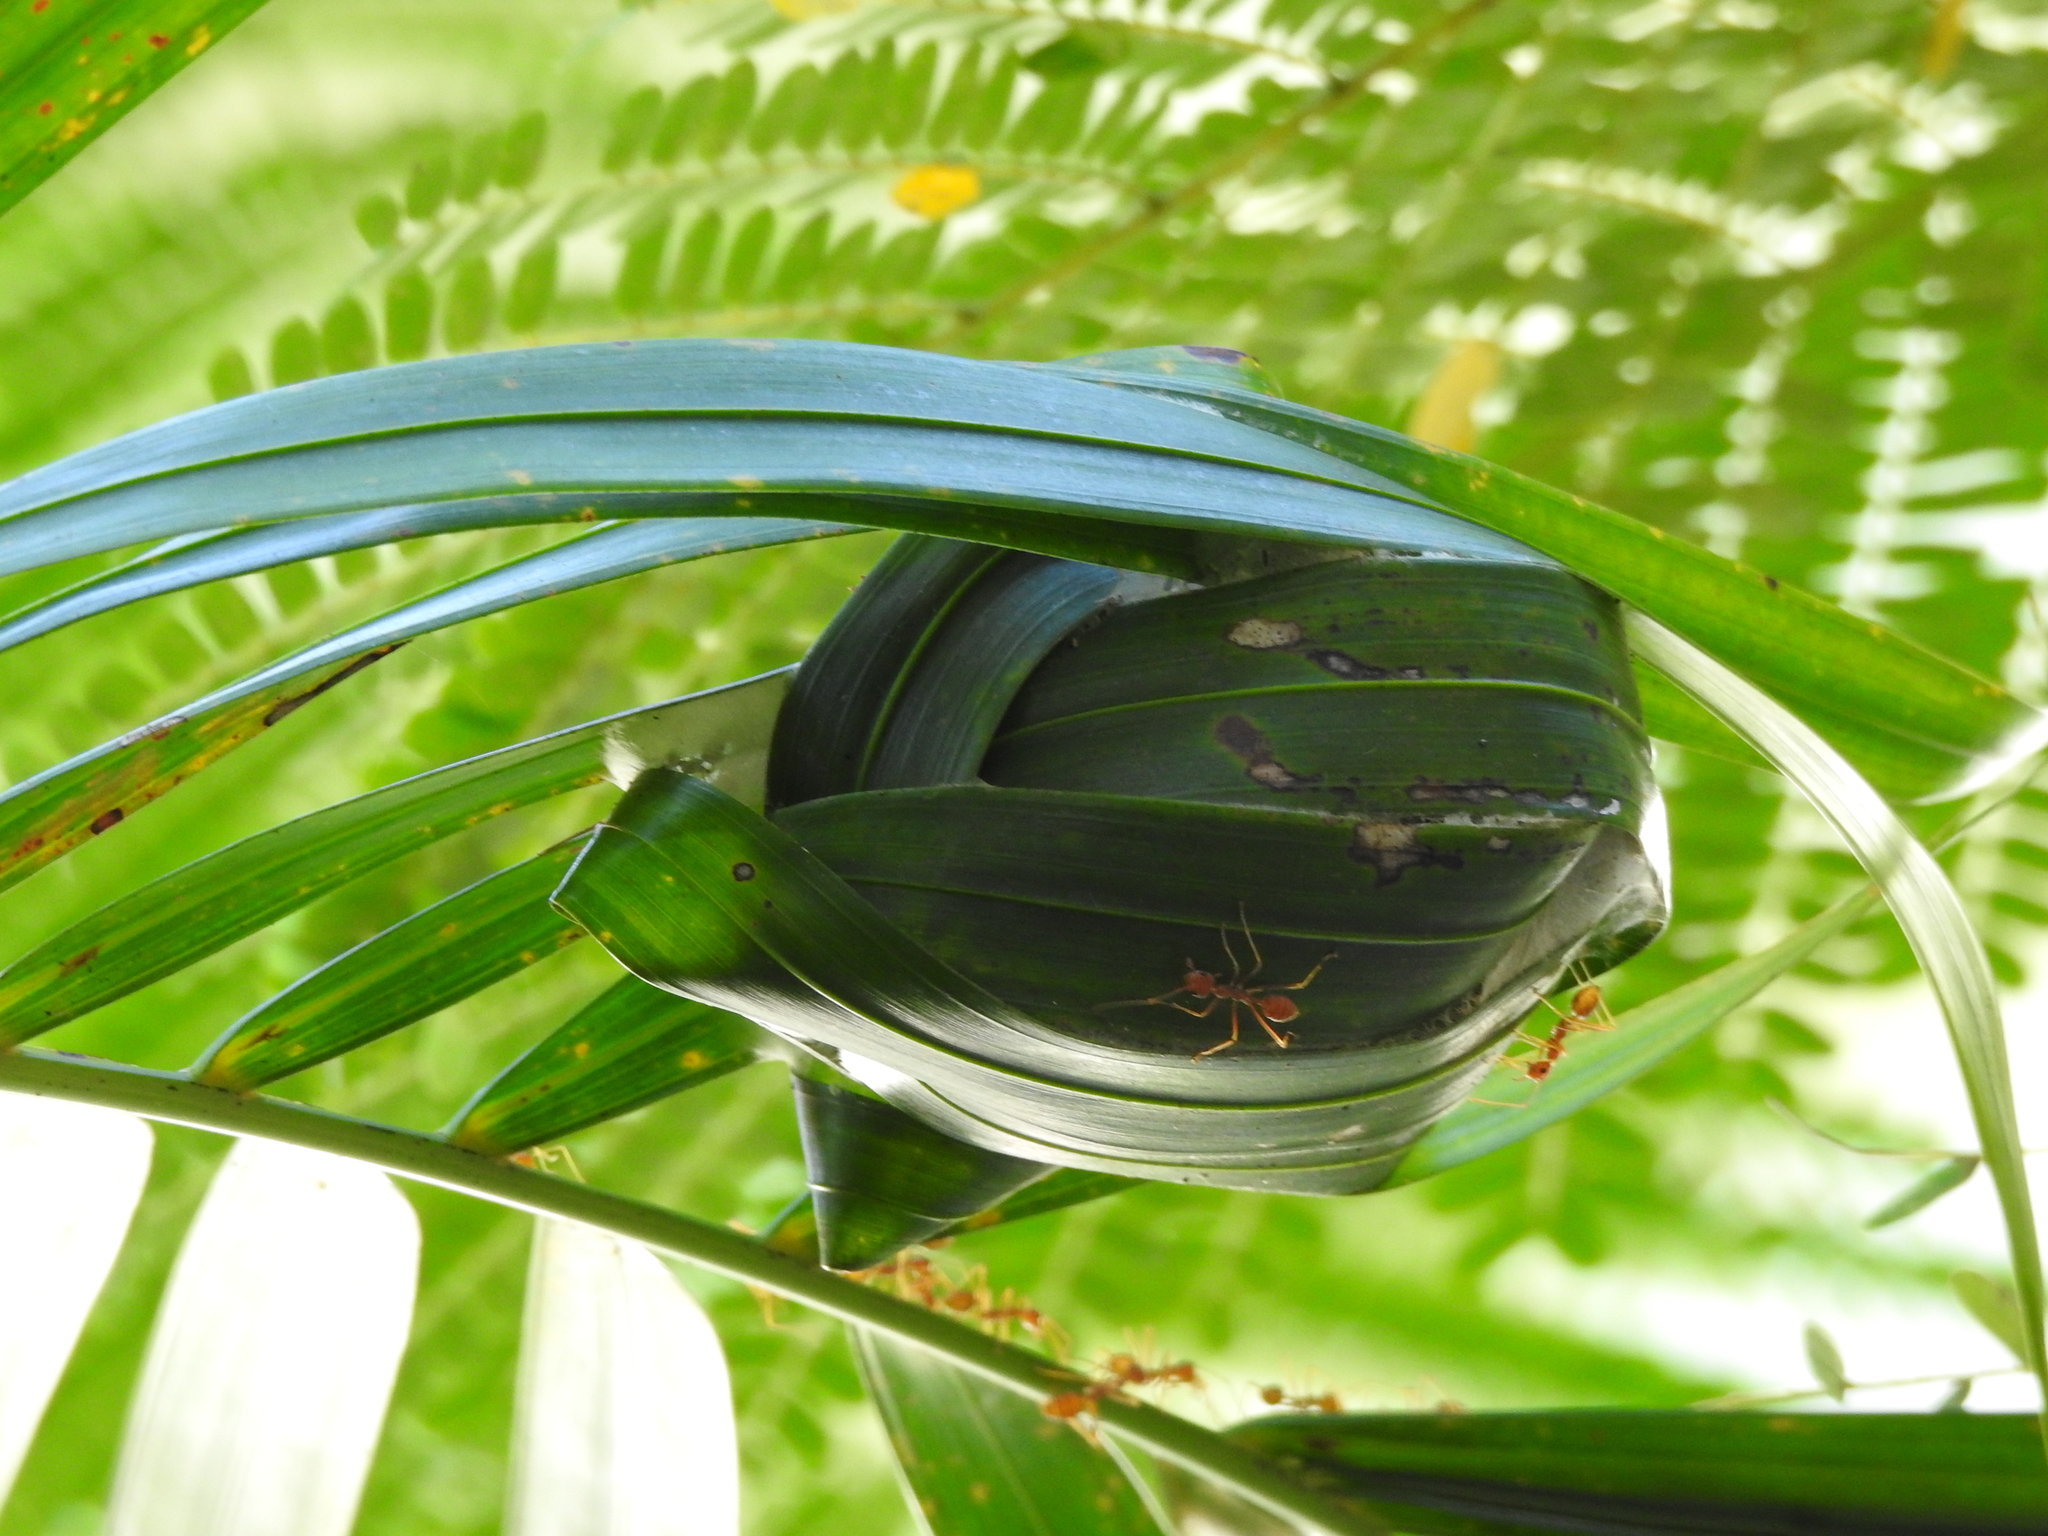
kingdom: Animalia
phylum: Arthropoda
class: Insecta
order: Hymenoptera
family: Formicidae
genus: Oecophylla
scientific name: Oecophylla smaragdina
